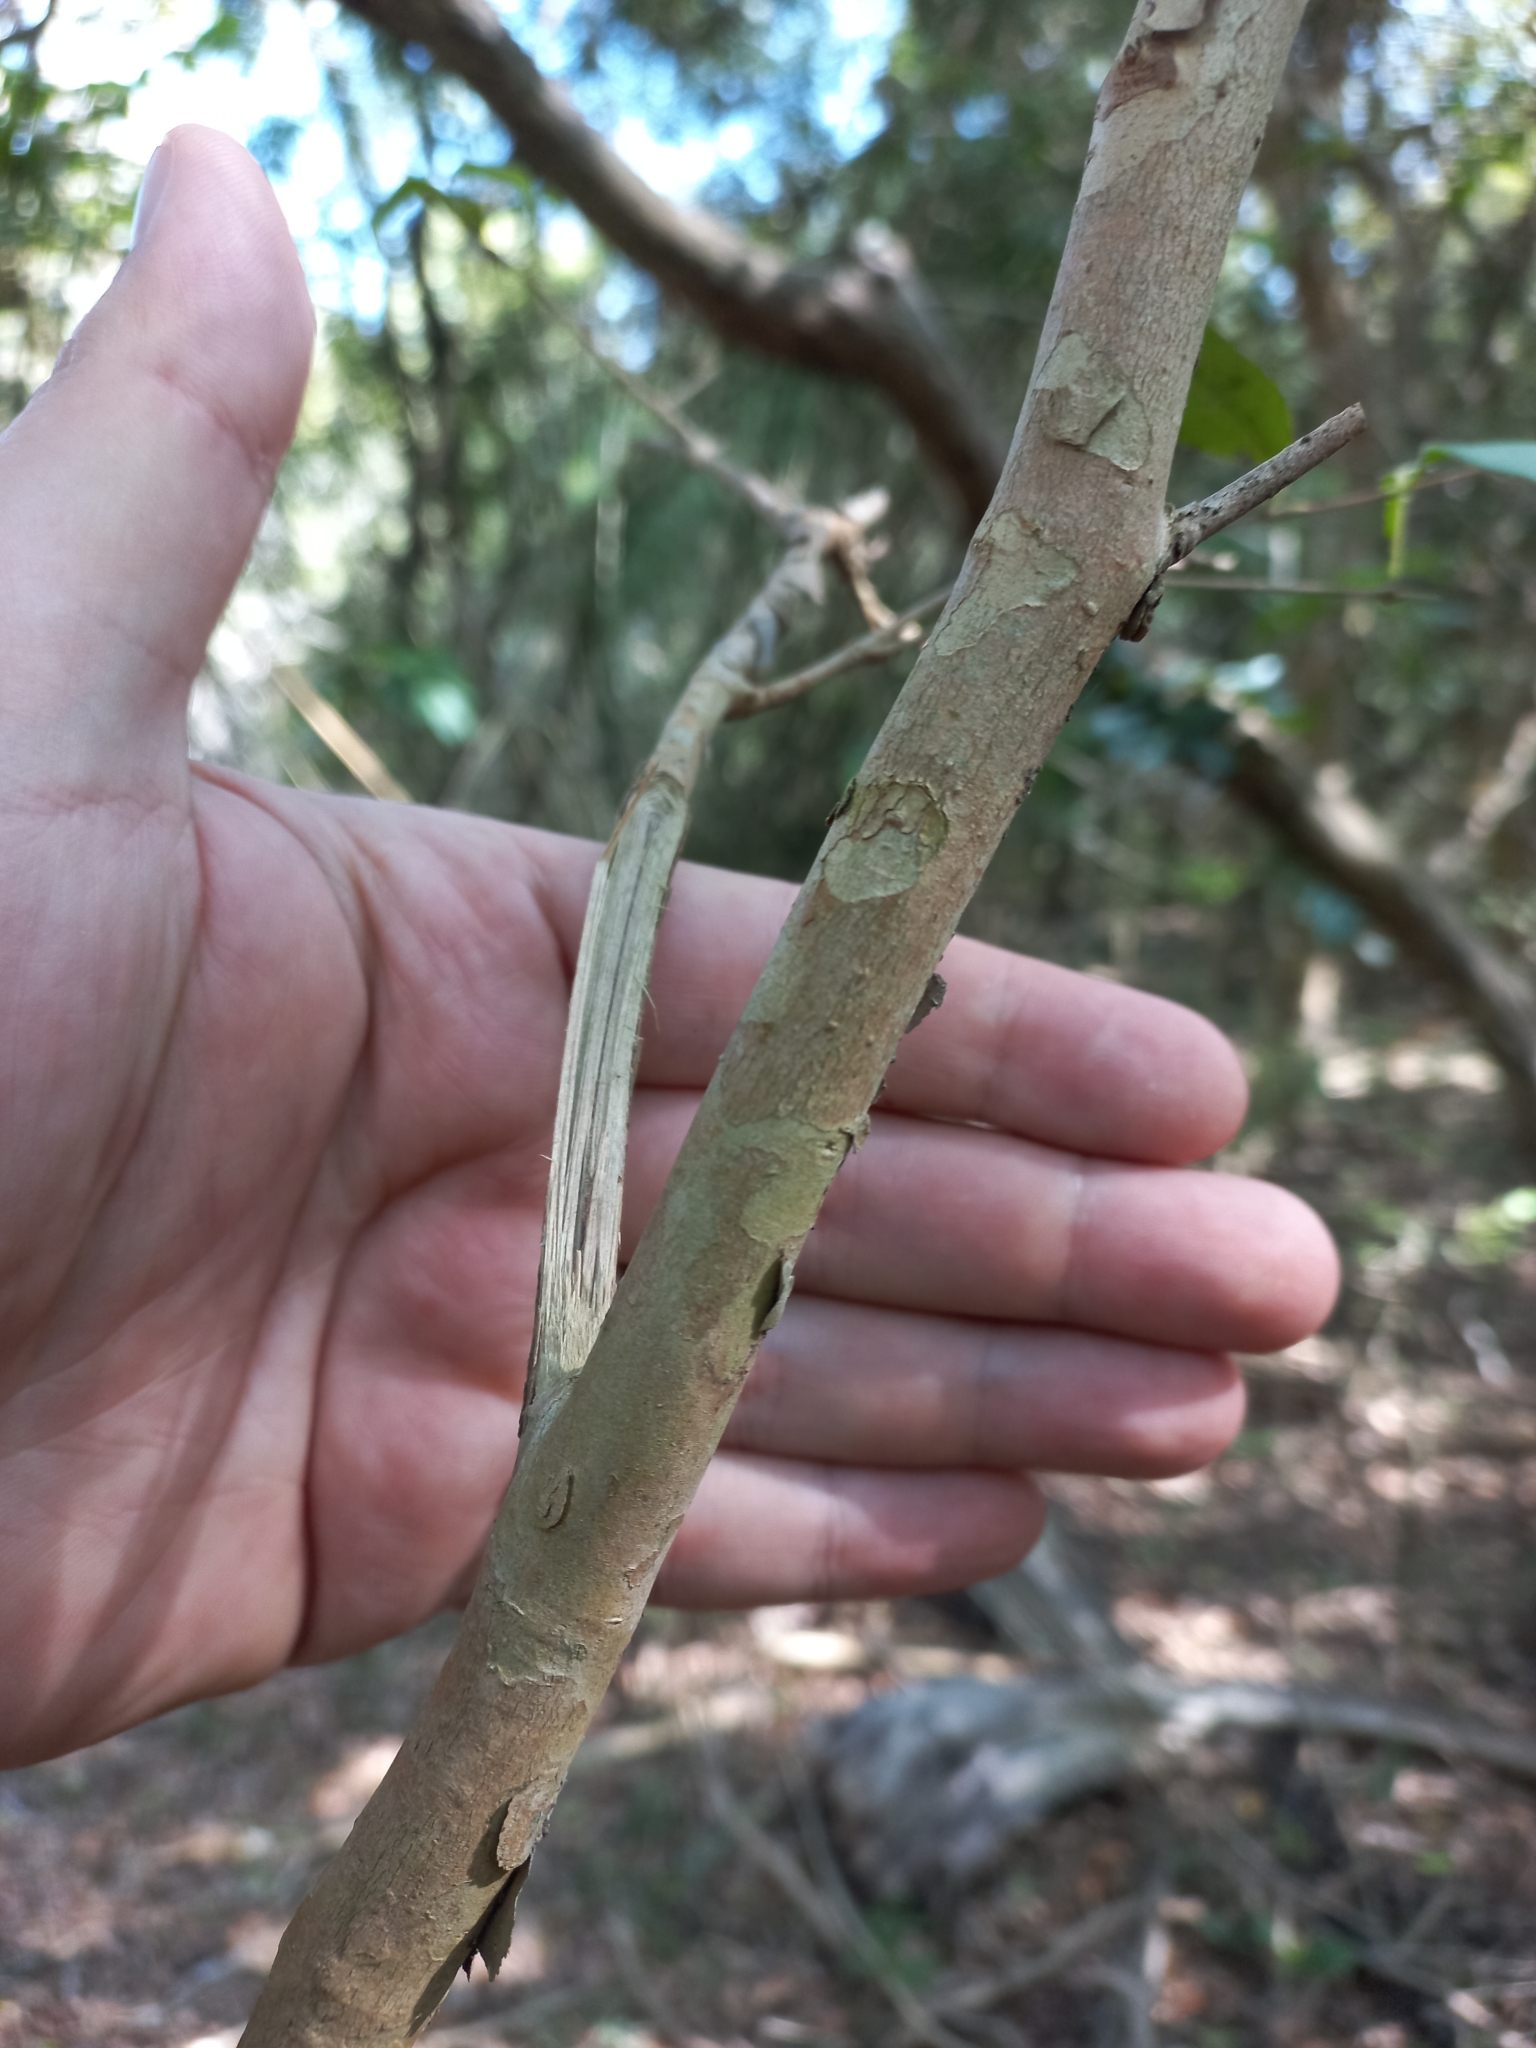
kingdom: Plantae
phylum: Tracheophyta
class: Magnoliopsida
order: Myrtales
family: Myrtaceae
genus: Myrcianthes
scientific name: Myrcianthes pungens
